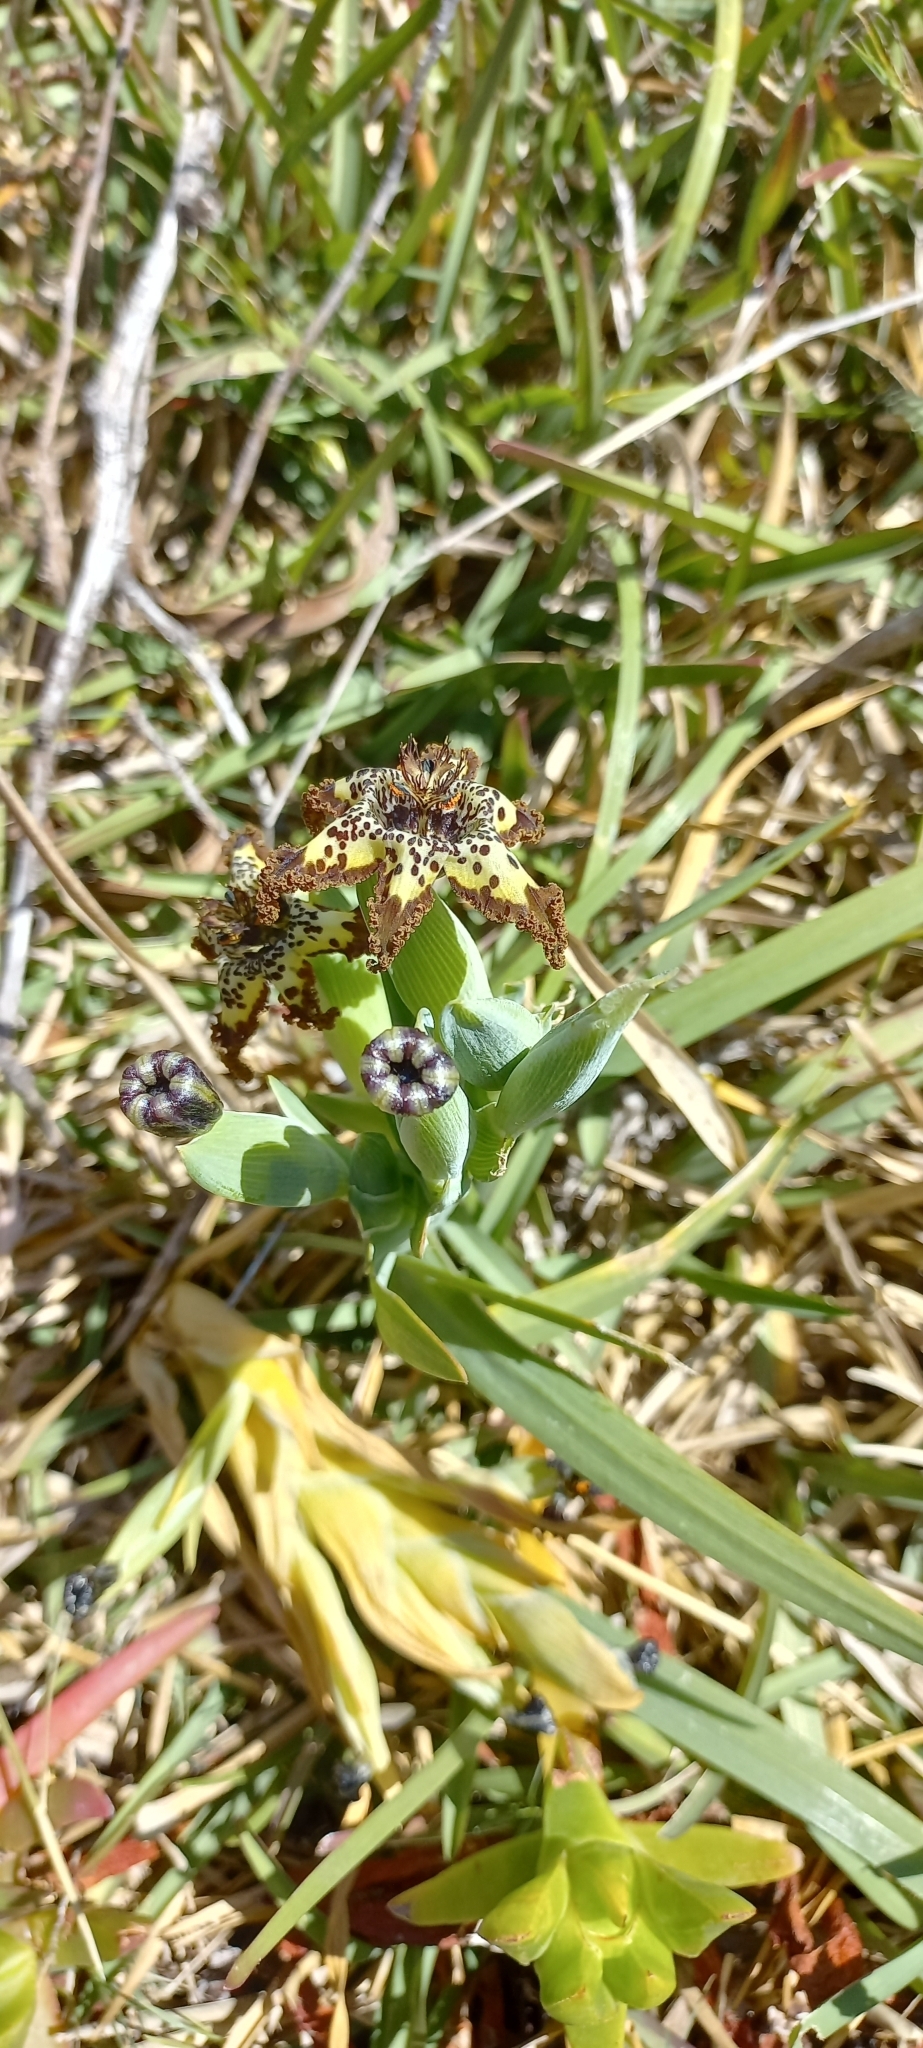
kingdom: Plantae
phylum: Tracheophyta
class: Liliopsida
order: Asparagales
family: Iridaceae
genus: Ferraria
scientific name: Ferraria crispa
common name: Black-flag
